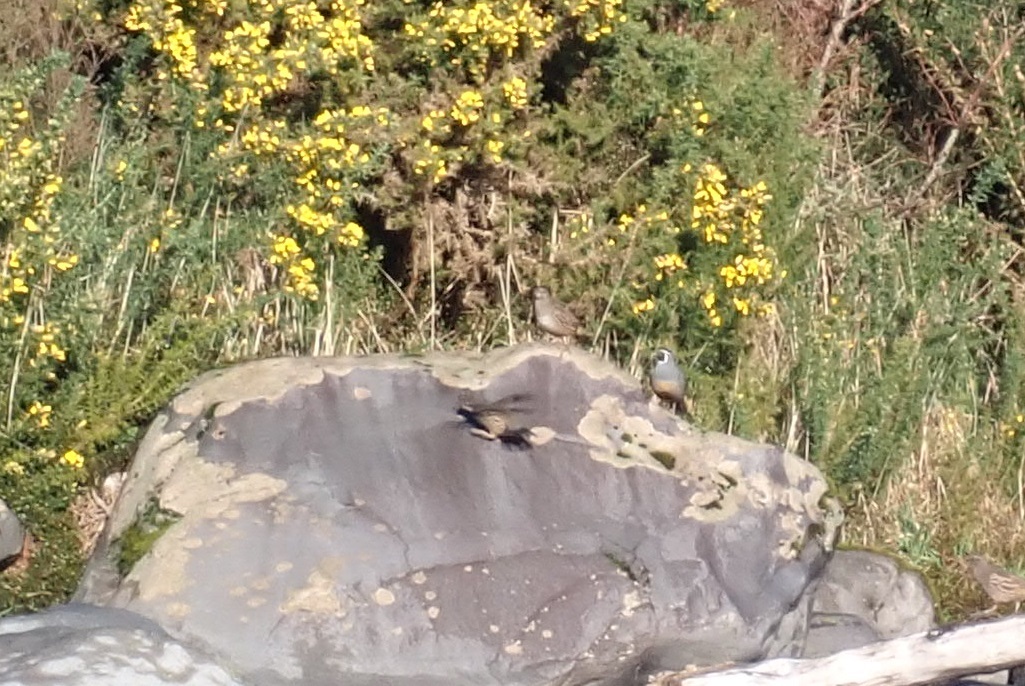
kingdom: Animalia
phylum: Chordata
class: Aves
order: Galliformes
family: Odontophoridae
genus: Callipepla
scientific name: Callipepla californica
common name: California quail
